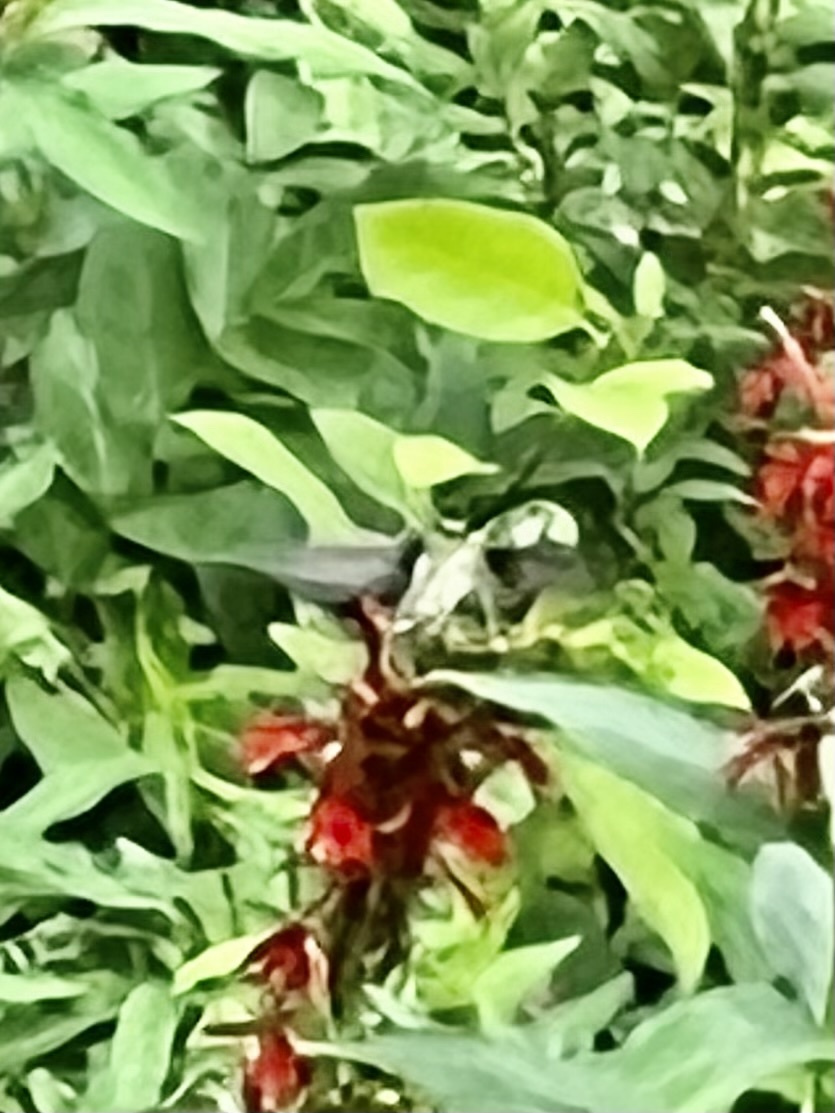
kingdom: Animalia
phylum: Chordata
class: Aves
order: Apodiformes
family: Trochilidae
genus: Archilochus
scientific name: Archilochus colubris
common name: Ruby-throated hummingbird
